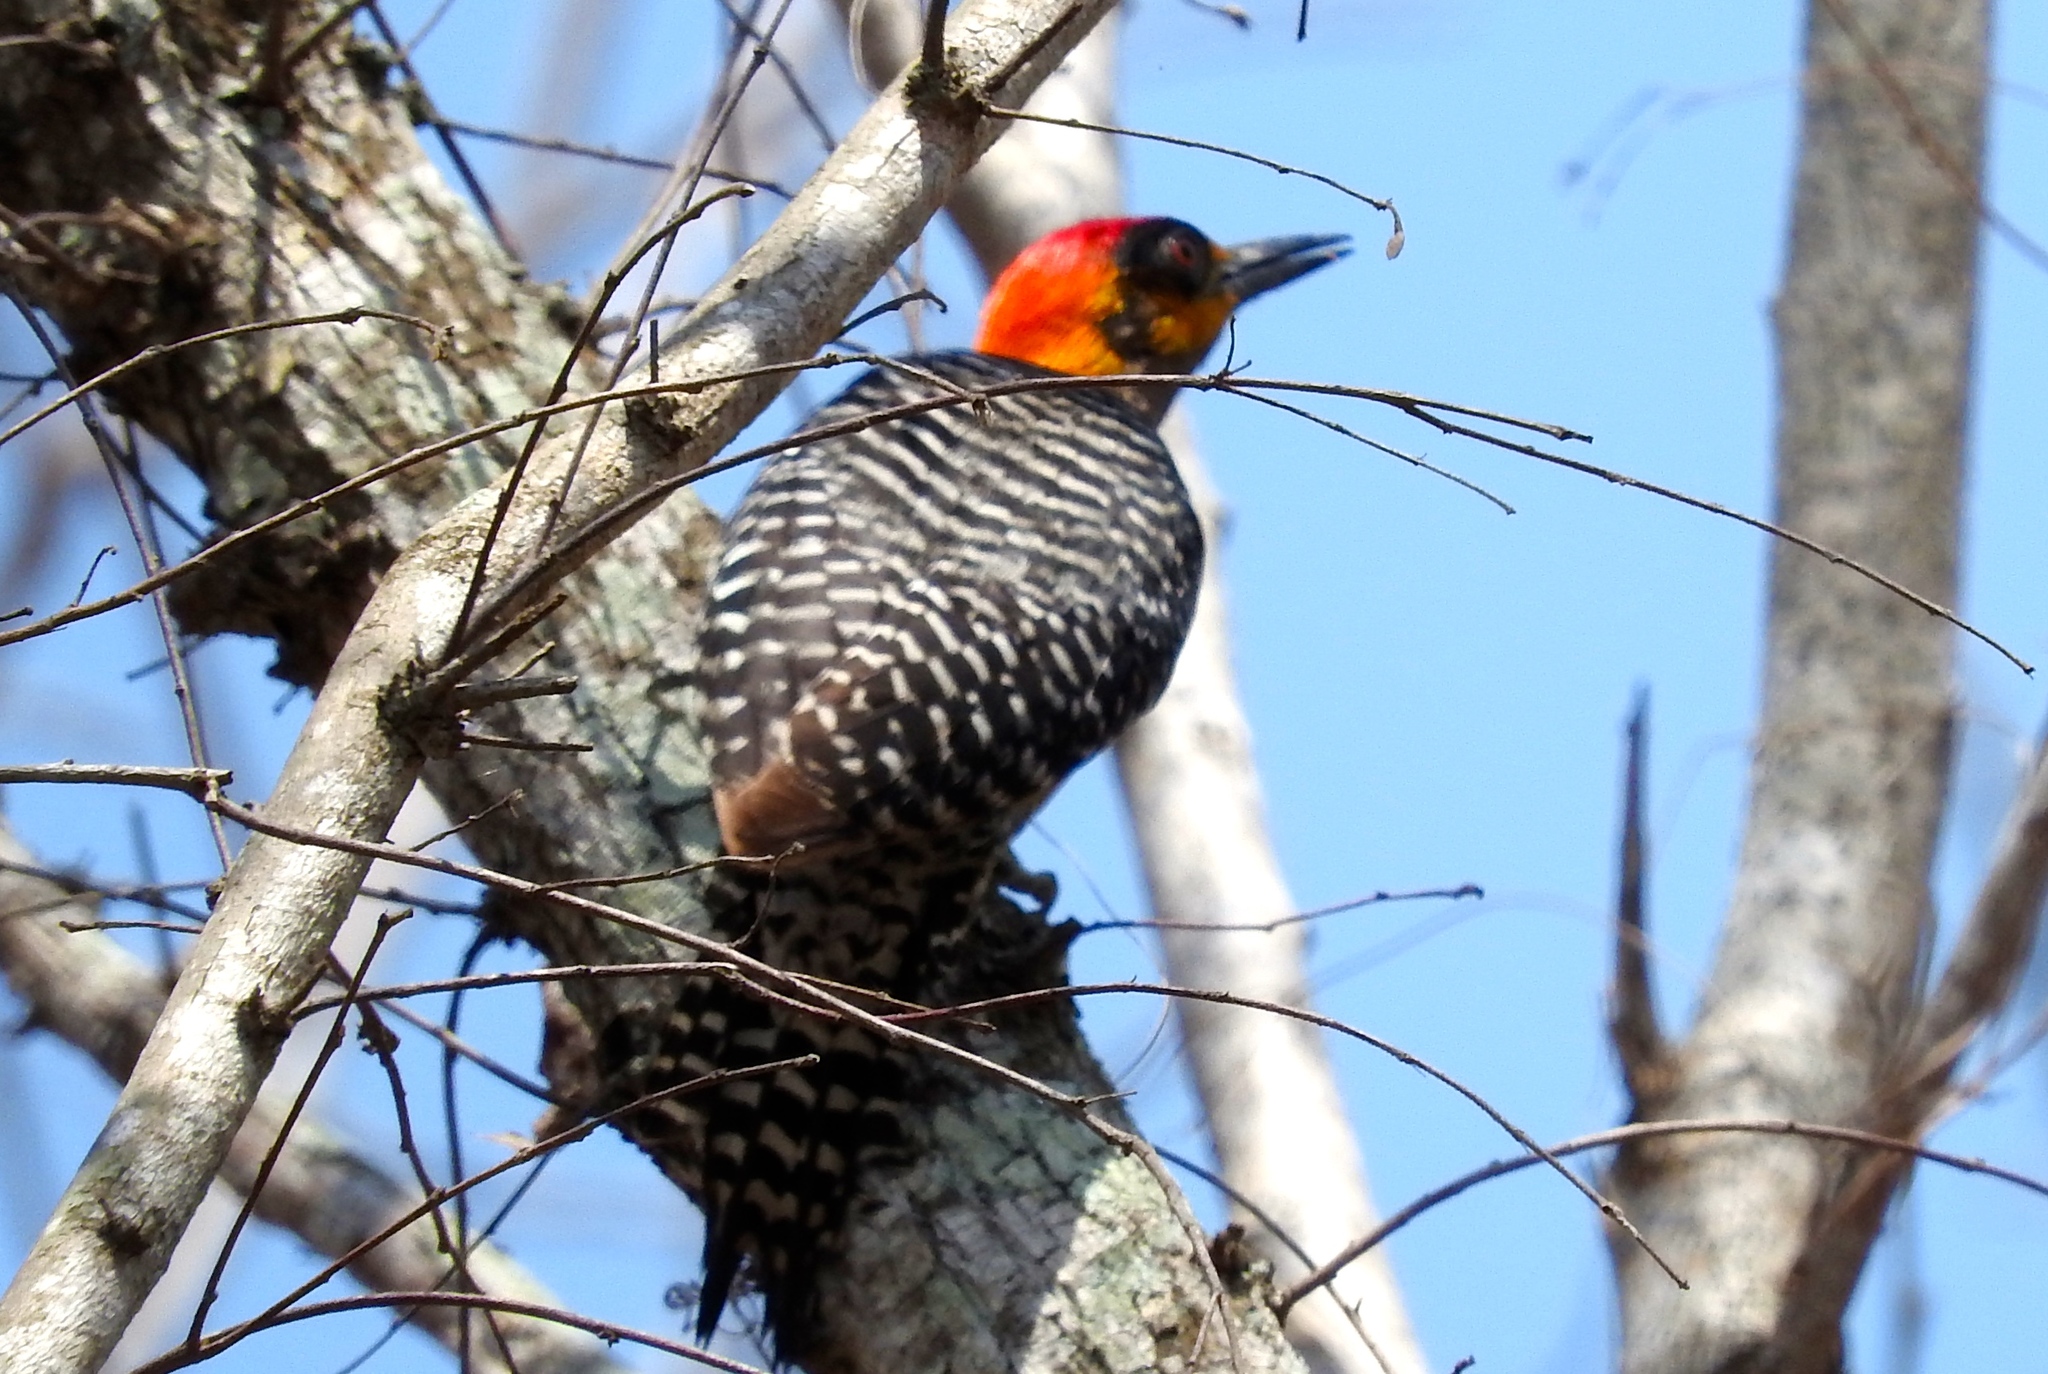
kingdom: Animalia
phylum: Chordata
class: Aves
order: Piciformes
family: Picidae
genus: Melanerpes
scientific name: Melanerpes chrysogenys
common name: Golden-cheeked woodpecker
